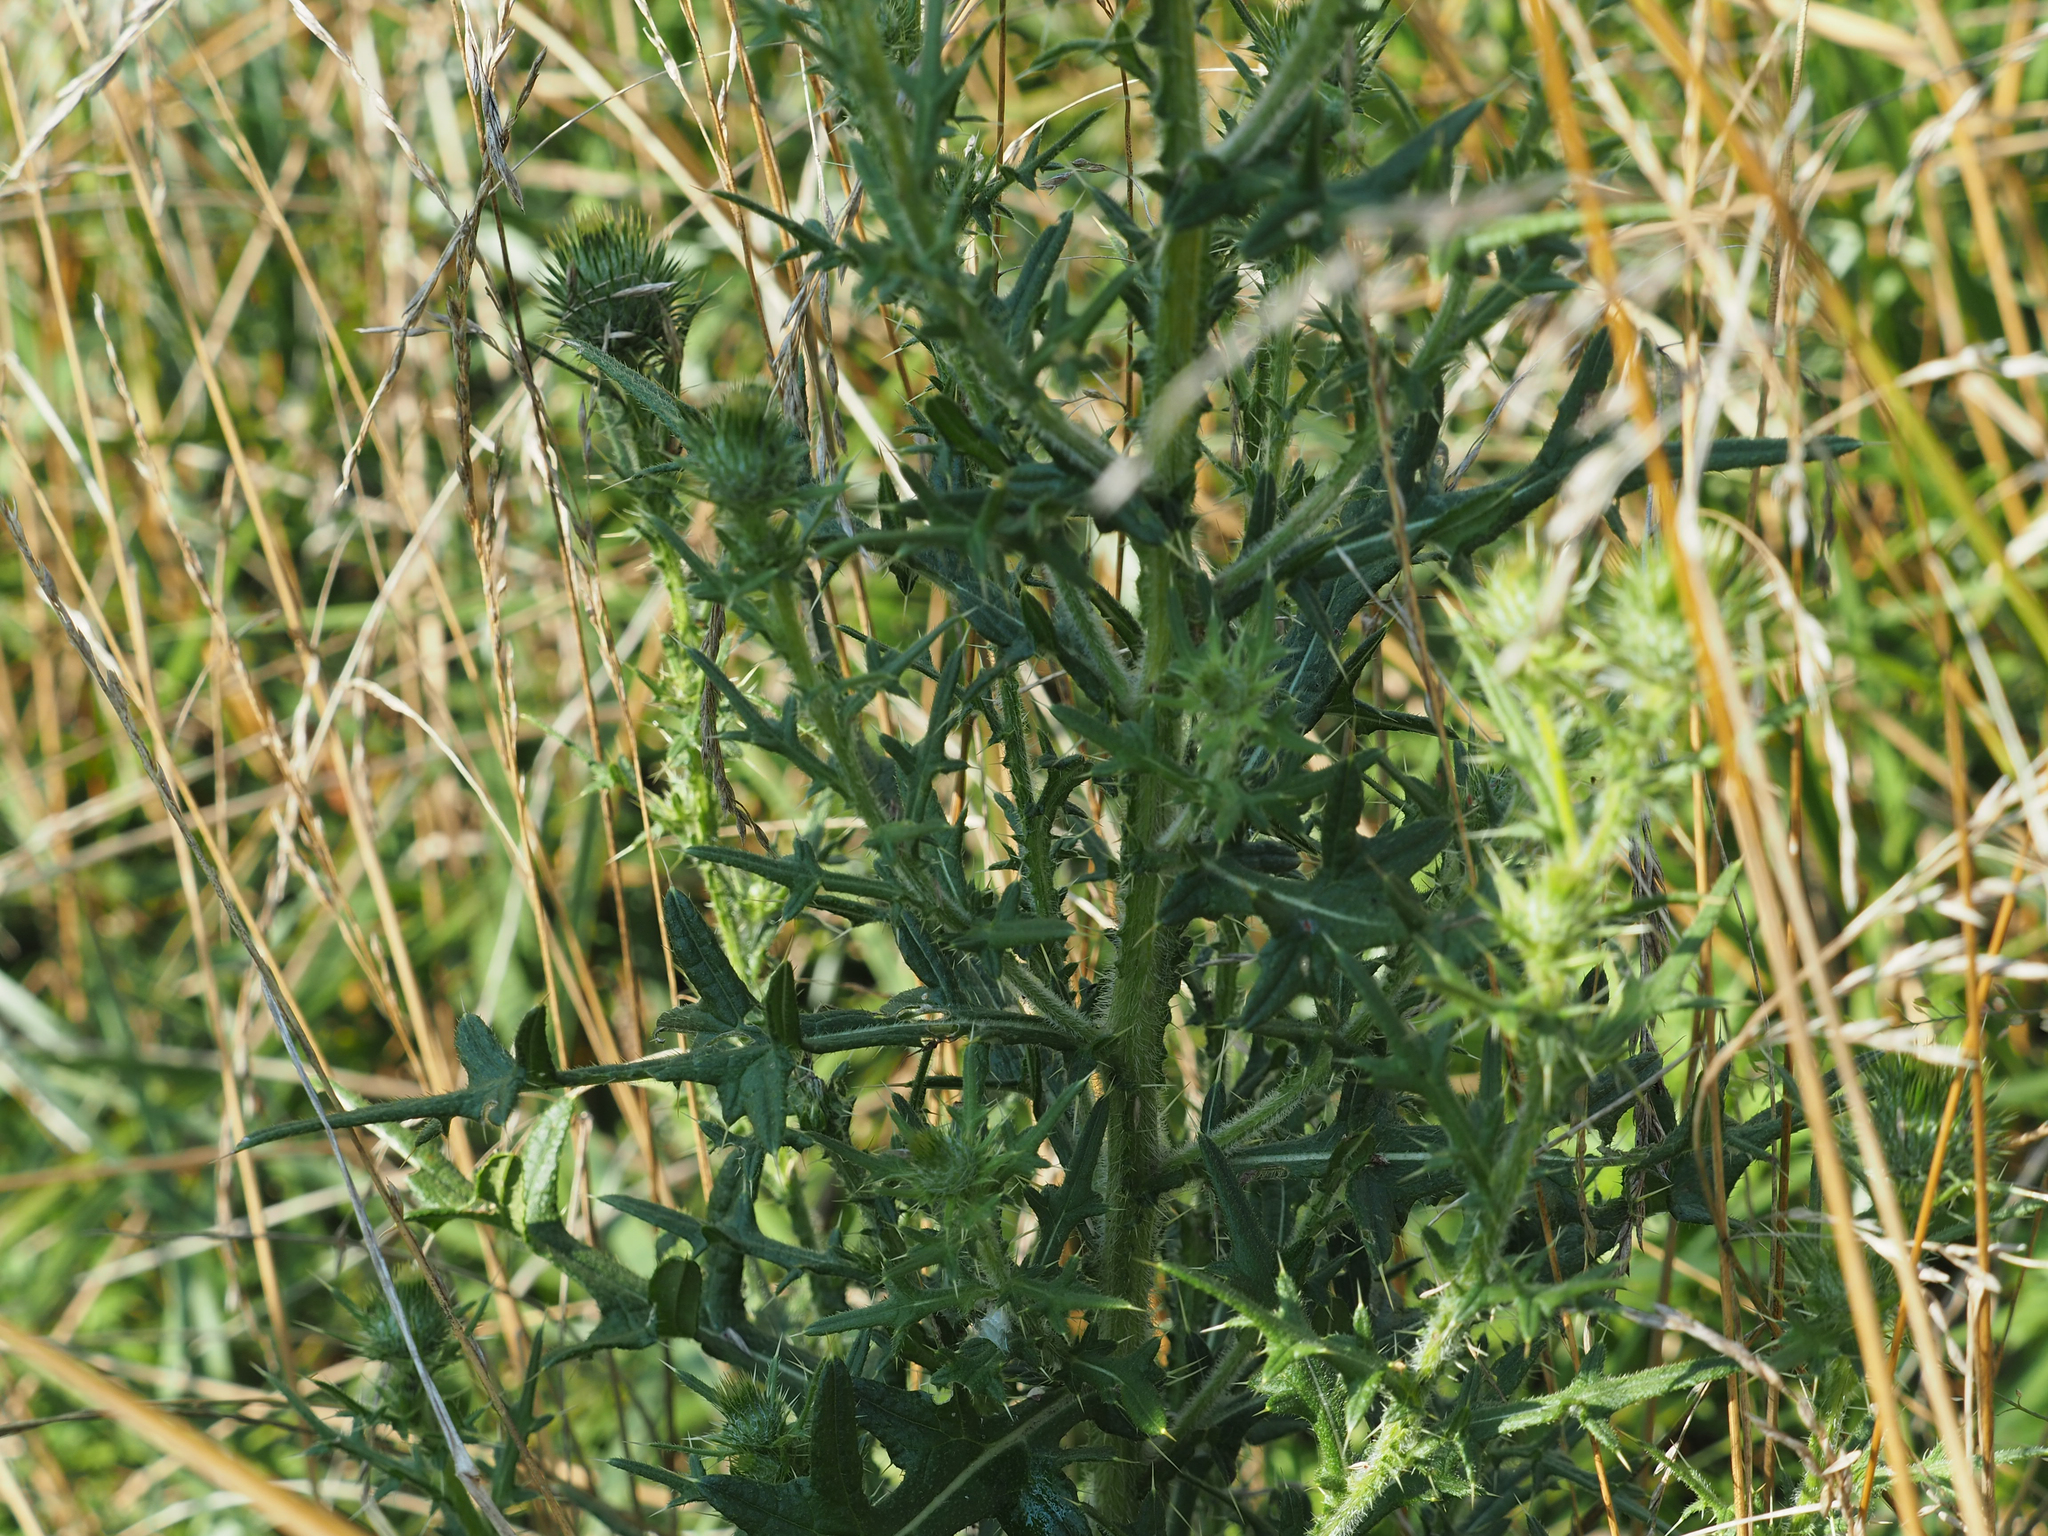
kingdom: Plantae
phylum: Tracheophyta
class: Magnoliopsida
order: Asterales
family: Asteraceae
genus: Cirsium
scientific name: Cirsium vulgare
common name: Bull thistle
